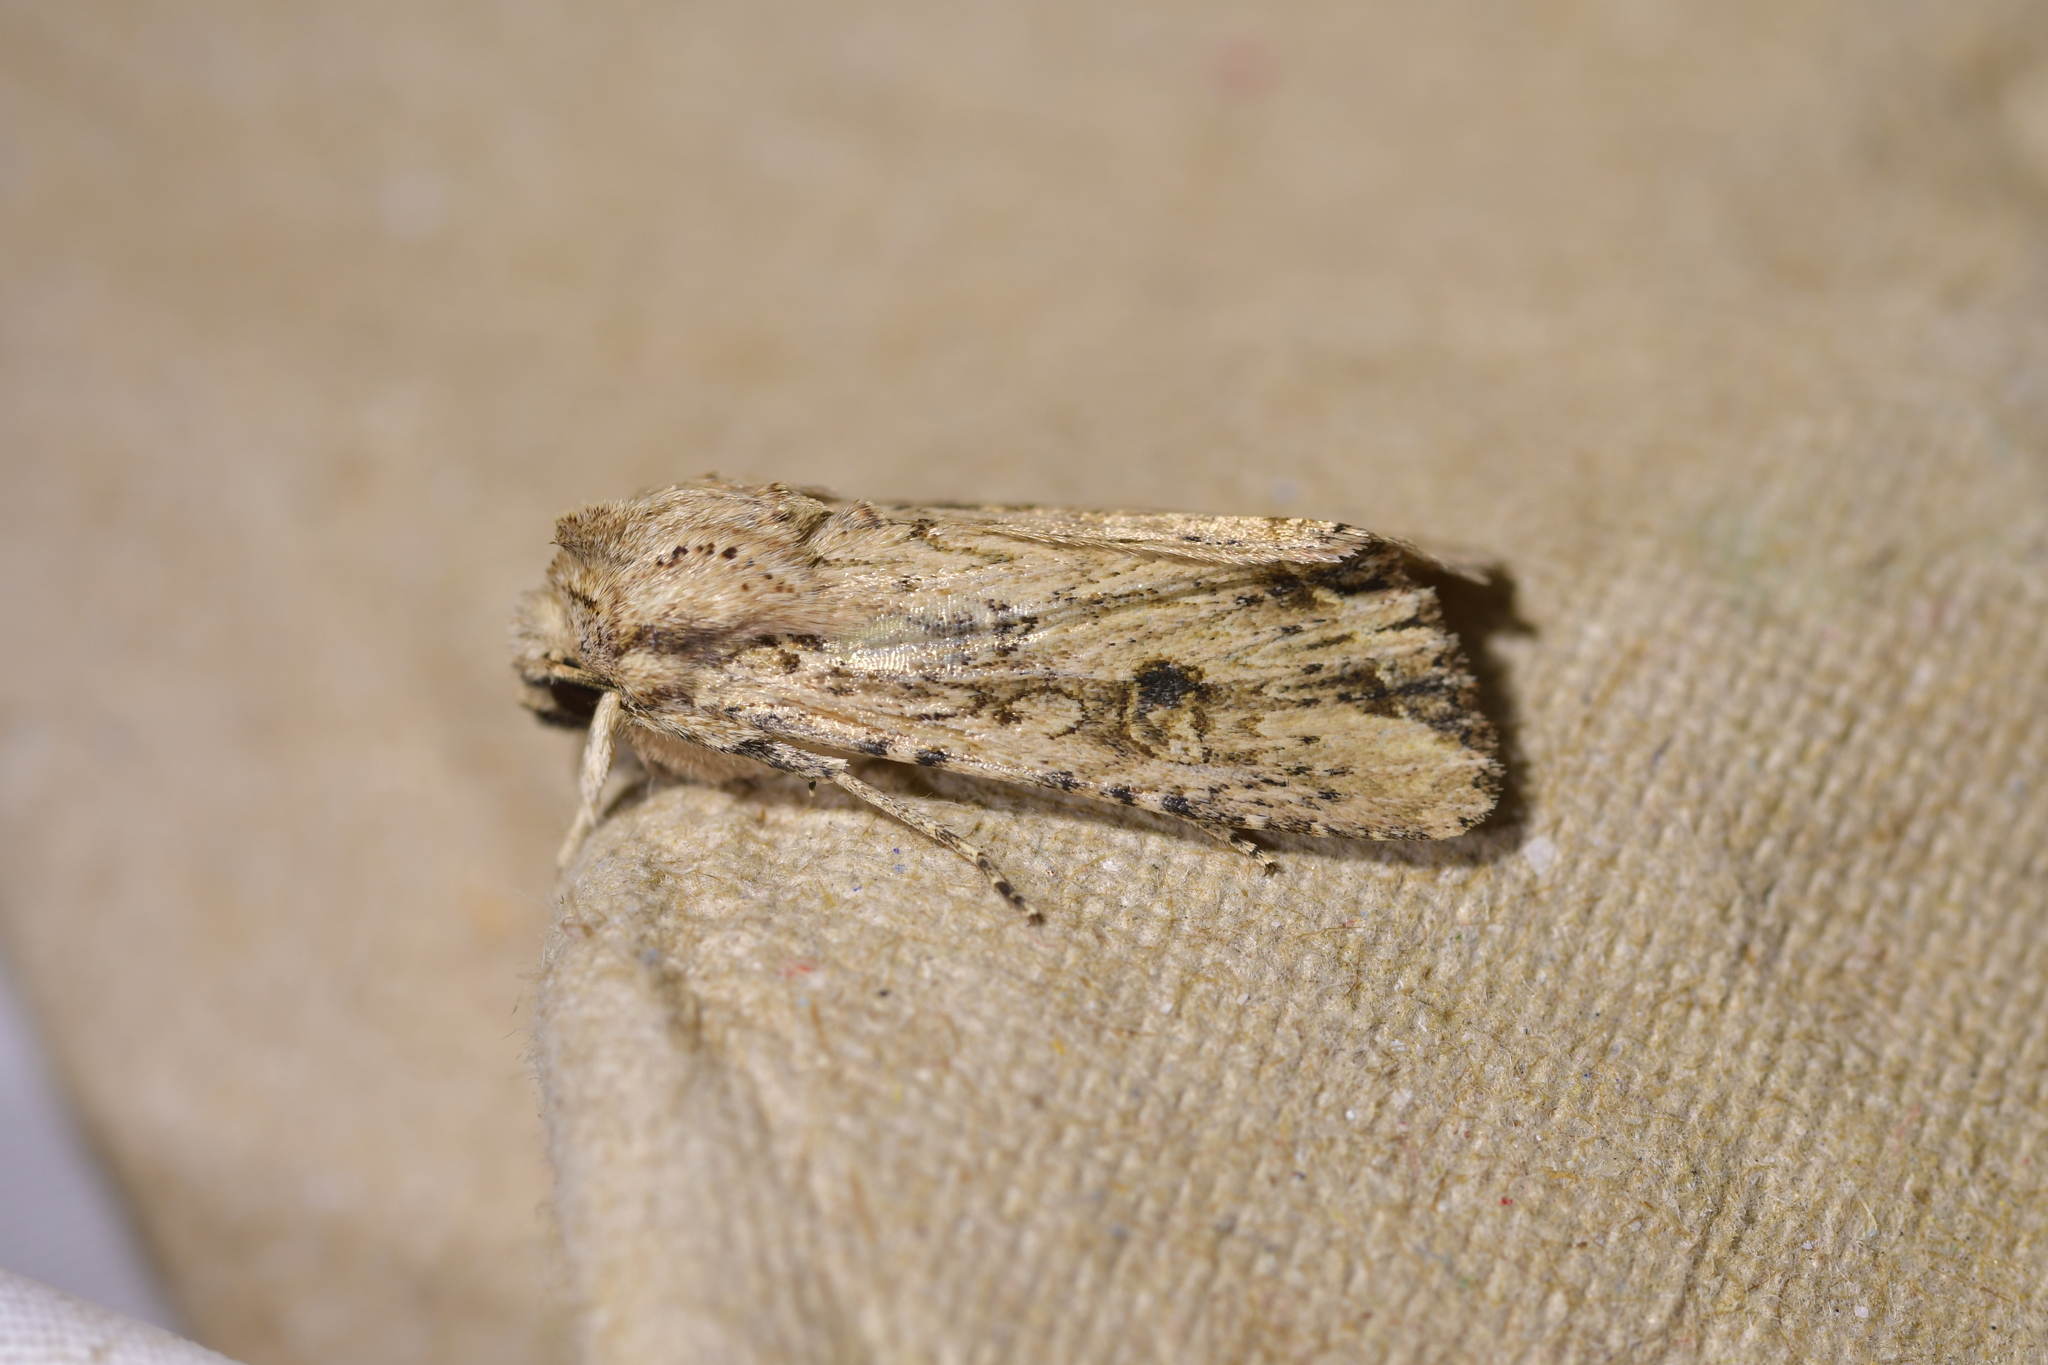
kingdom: Animalia
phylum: Arthropoda
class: Insecta
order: Lepidoptera
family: Noctuidae
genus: Ichneutica
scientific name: Ichneutica lignana
